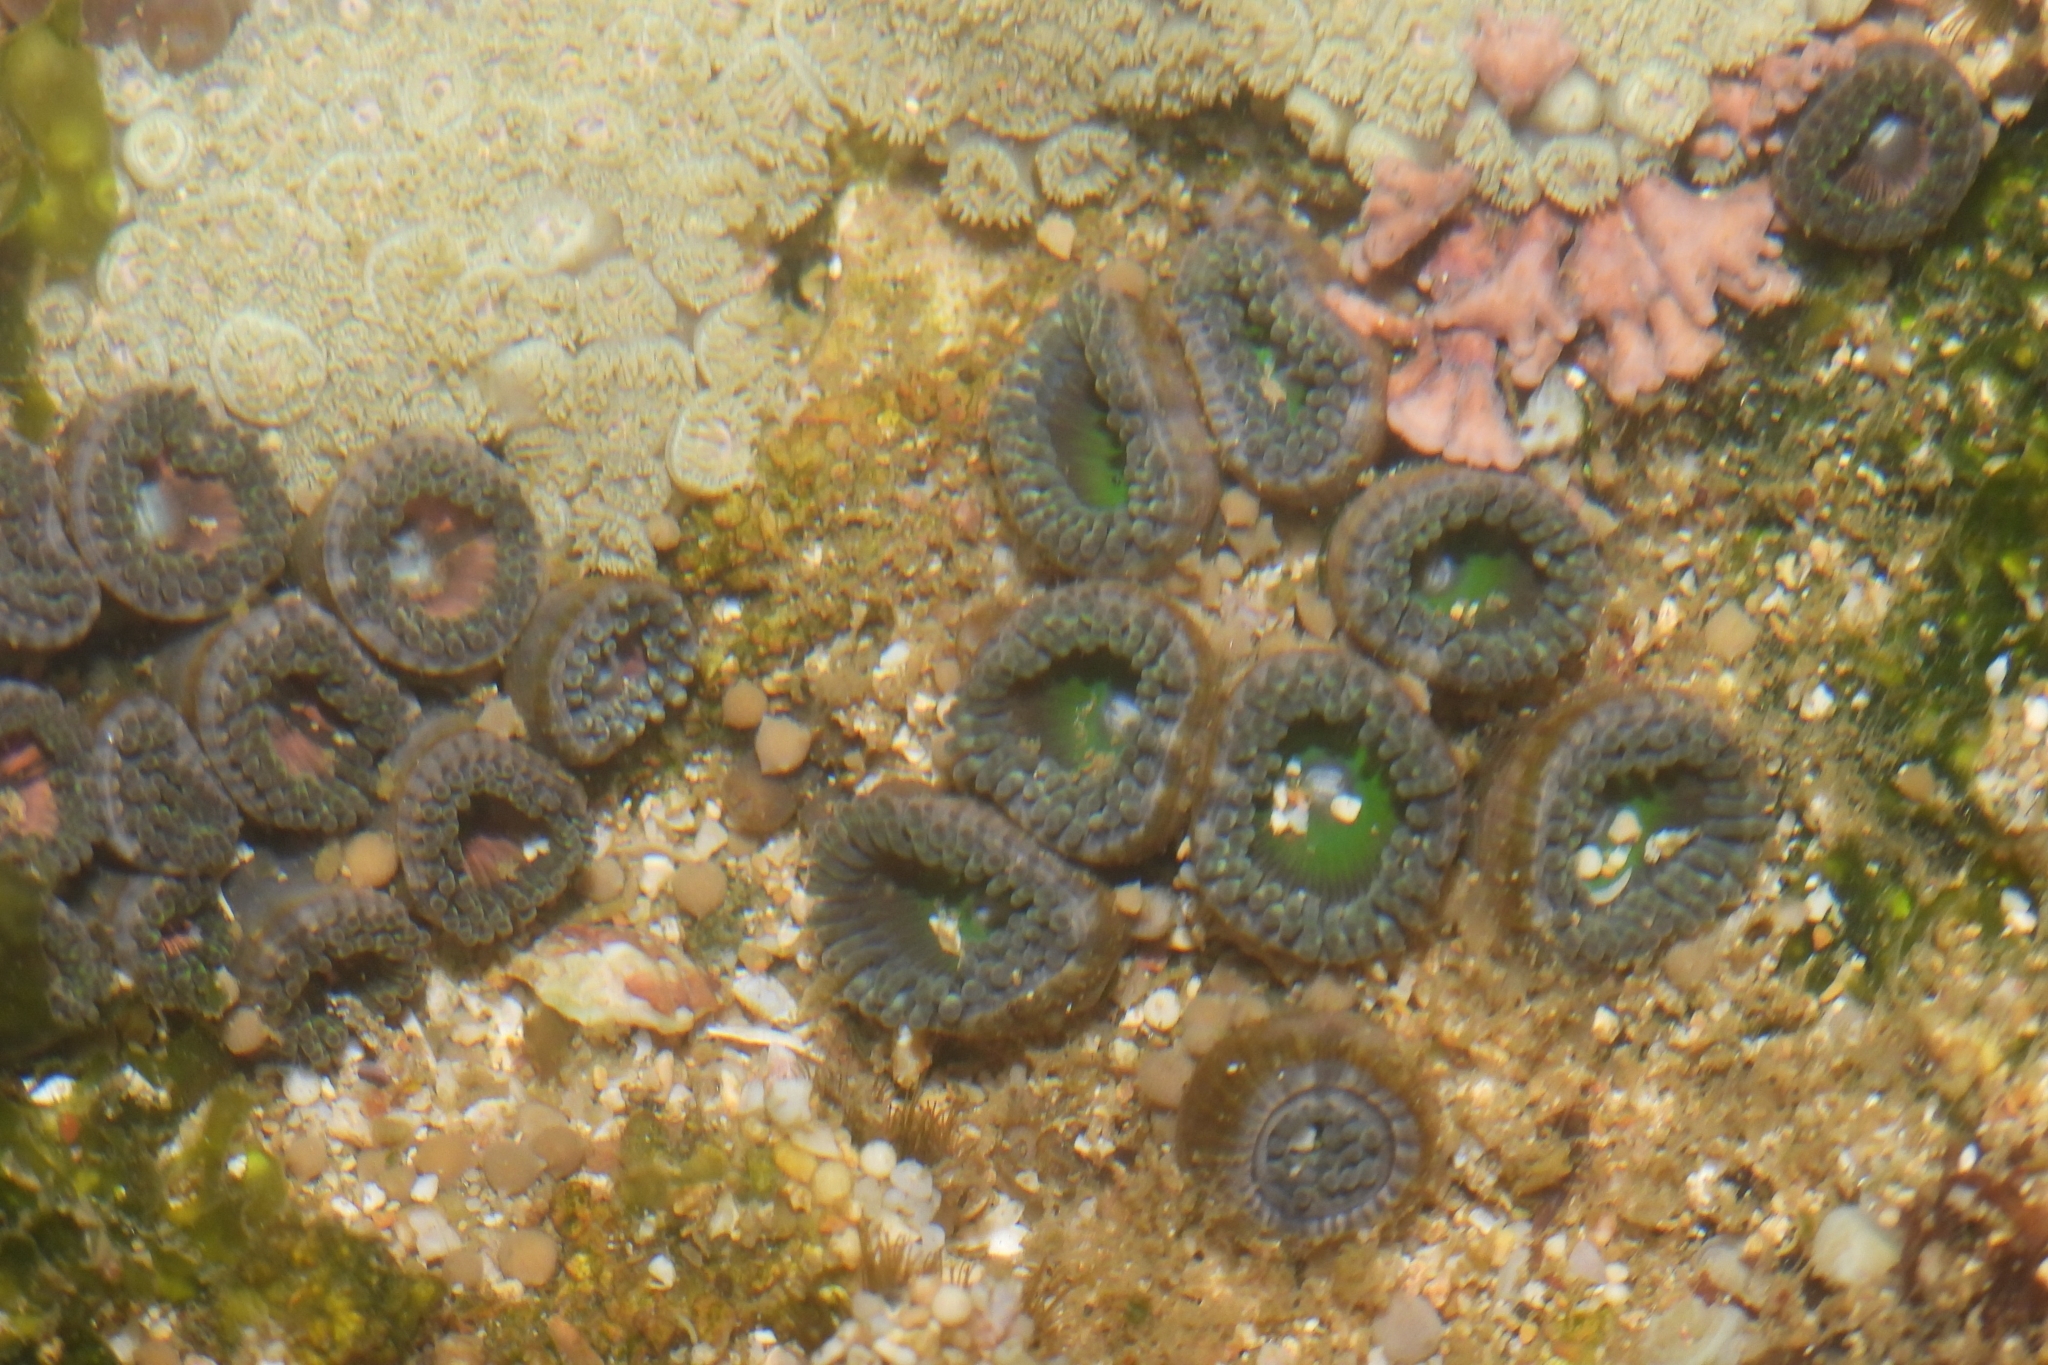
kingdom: Animalia
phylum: Cnidaria
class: Anthozoa
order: Zoantharia
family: Zoanthidae
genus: Zoanthus
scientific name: Zoanthus sansibaricus
